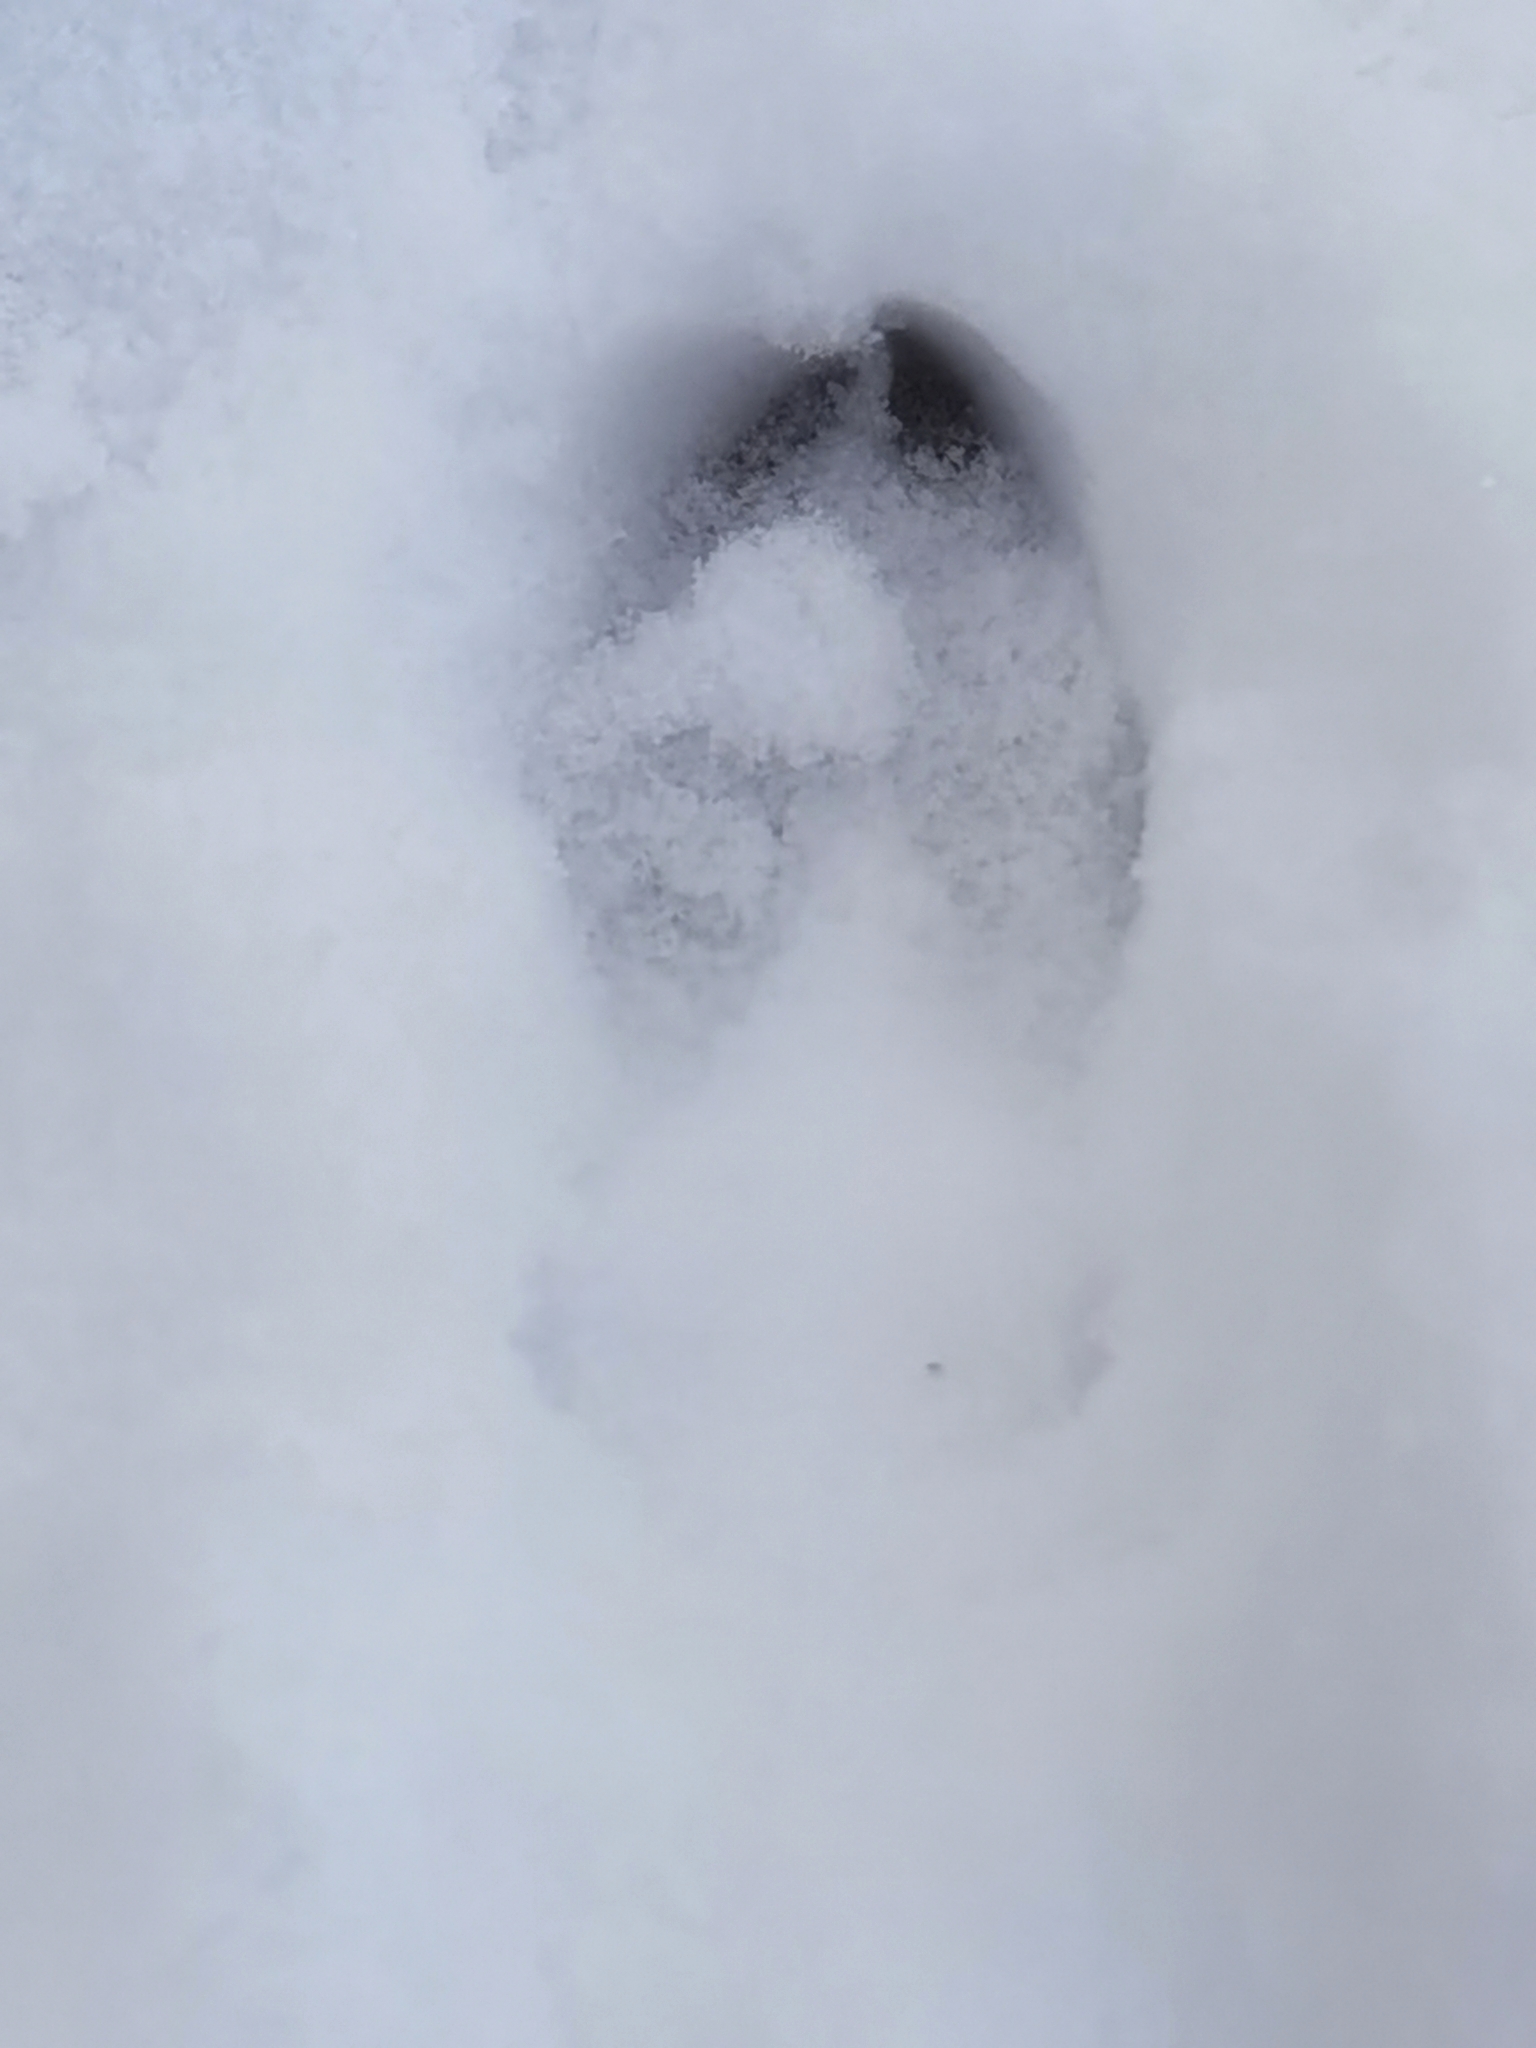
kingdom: Animalia
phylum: Chordata
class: Mammalia
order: Artiodactyla
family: Suidae
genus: Sus
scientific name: Sus scrofa
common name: Wild boar
